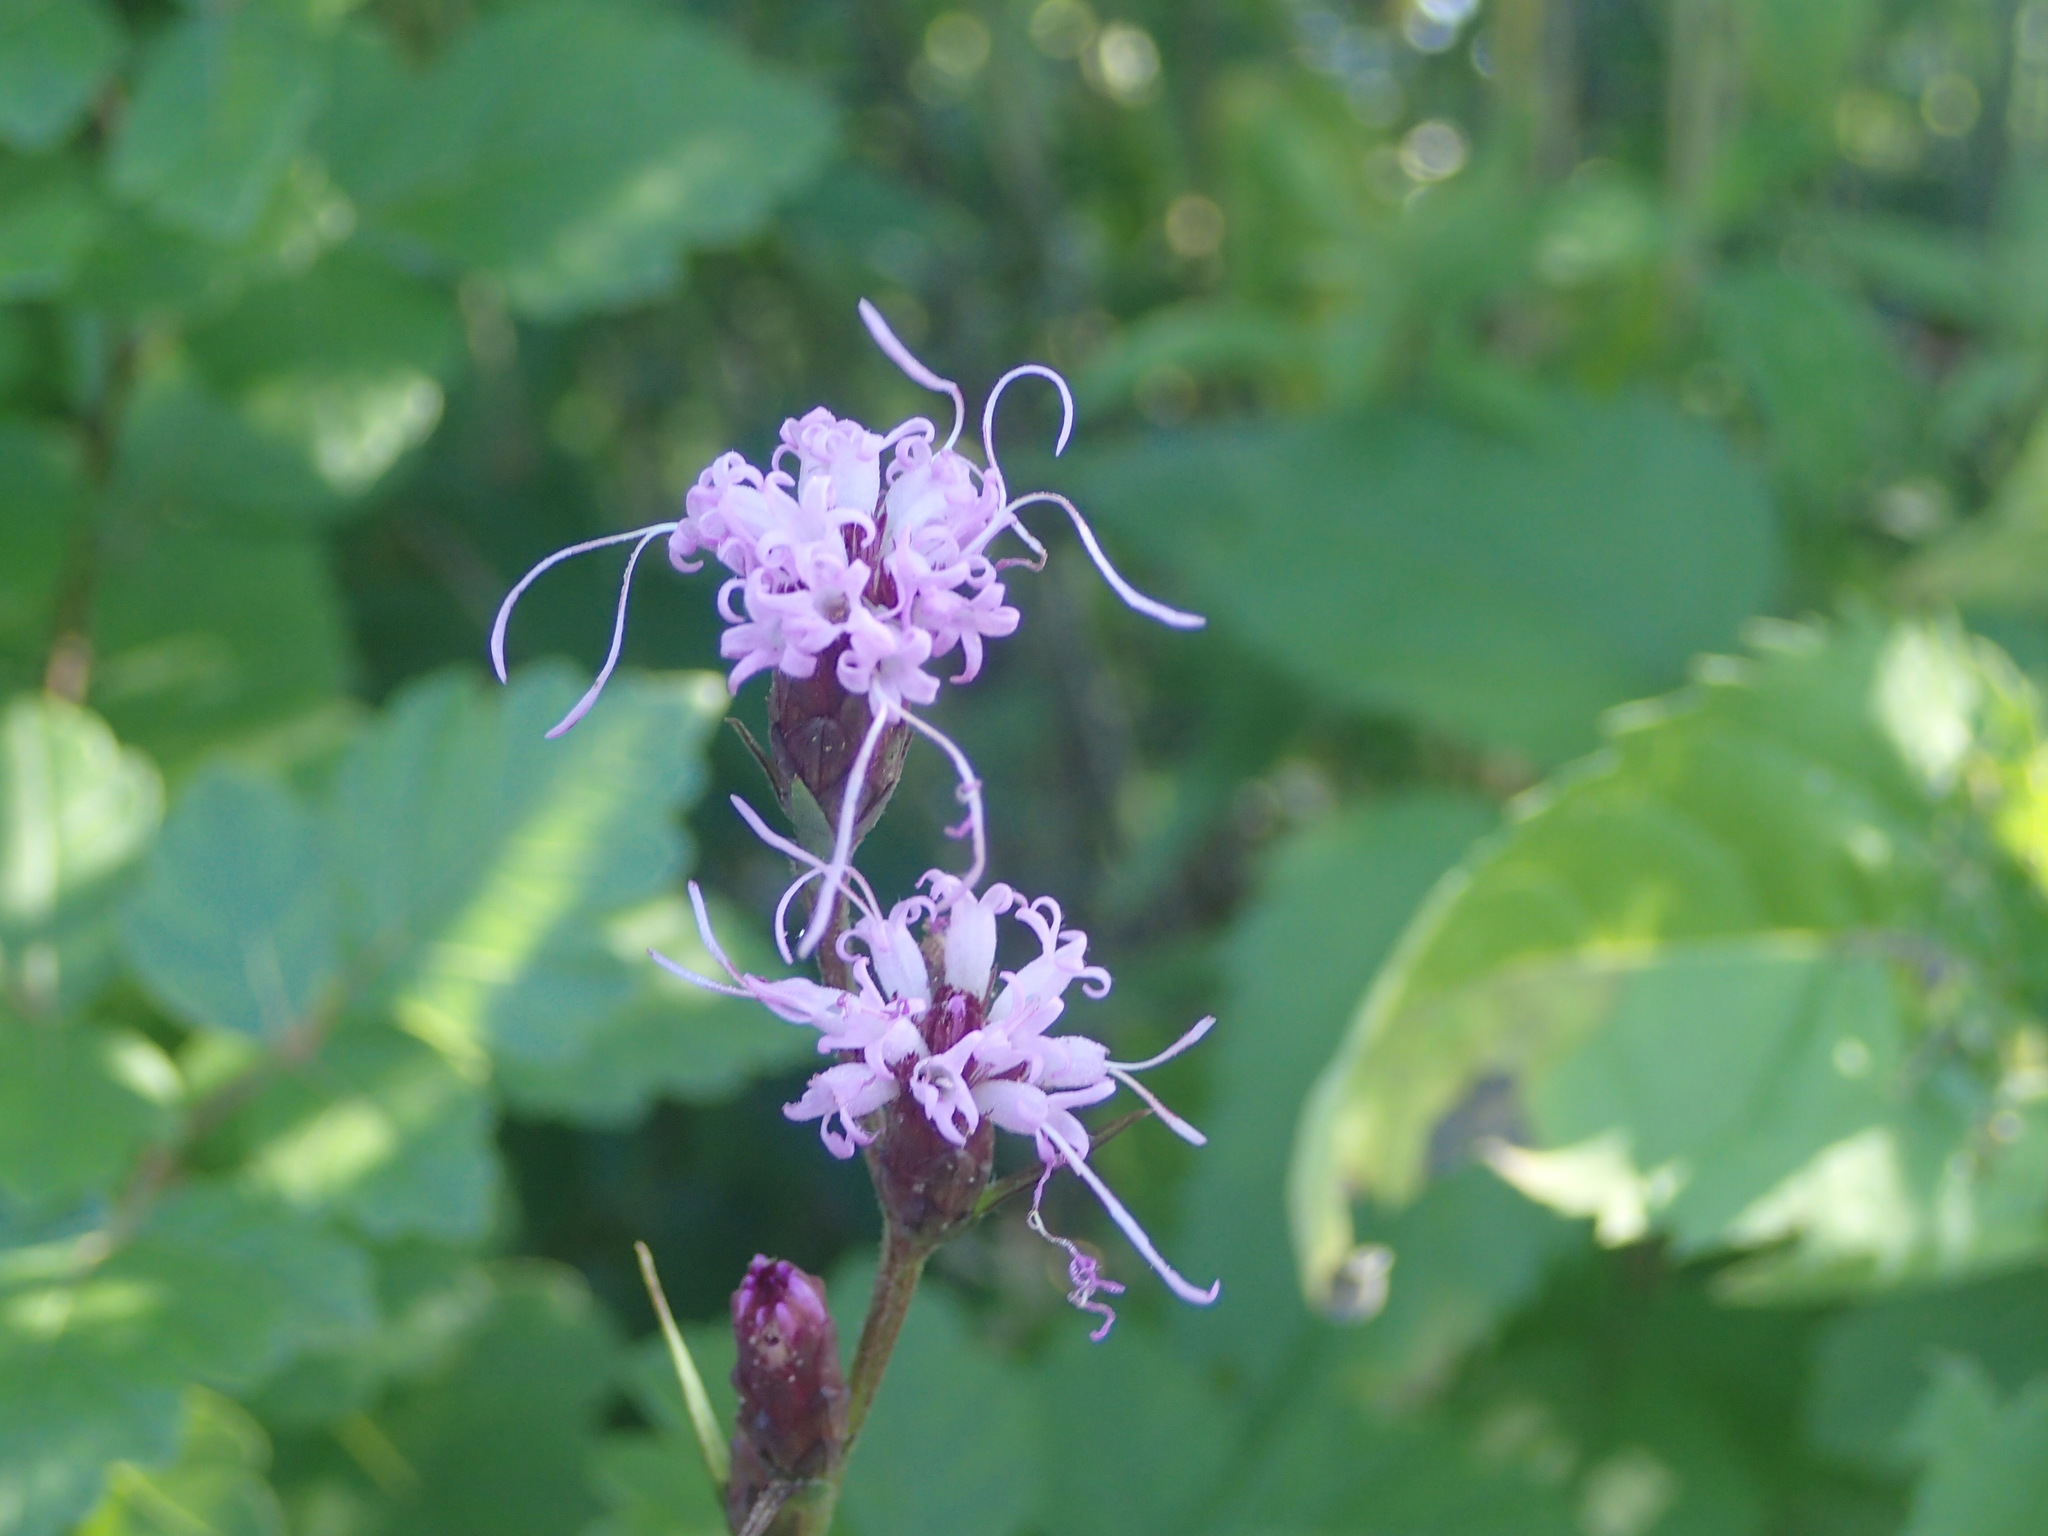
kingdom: Plantae
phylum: Tracheophyta
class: Magnoliopsida
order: Asterales
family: Asteraceae
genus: Liatris
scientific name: Liatris cylindracea
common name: Few-head blazingstar
